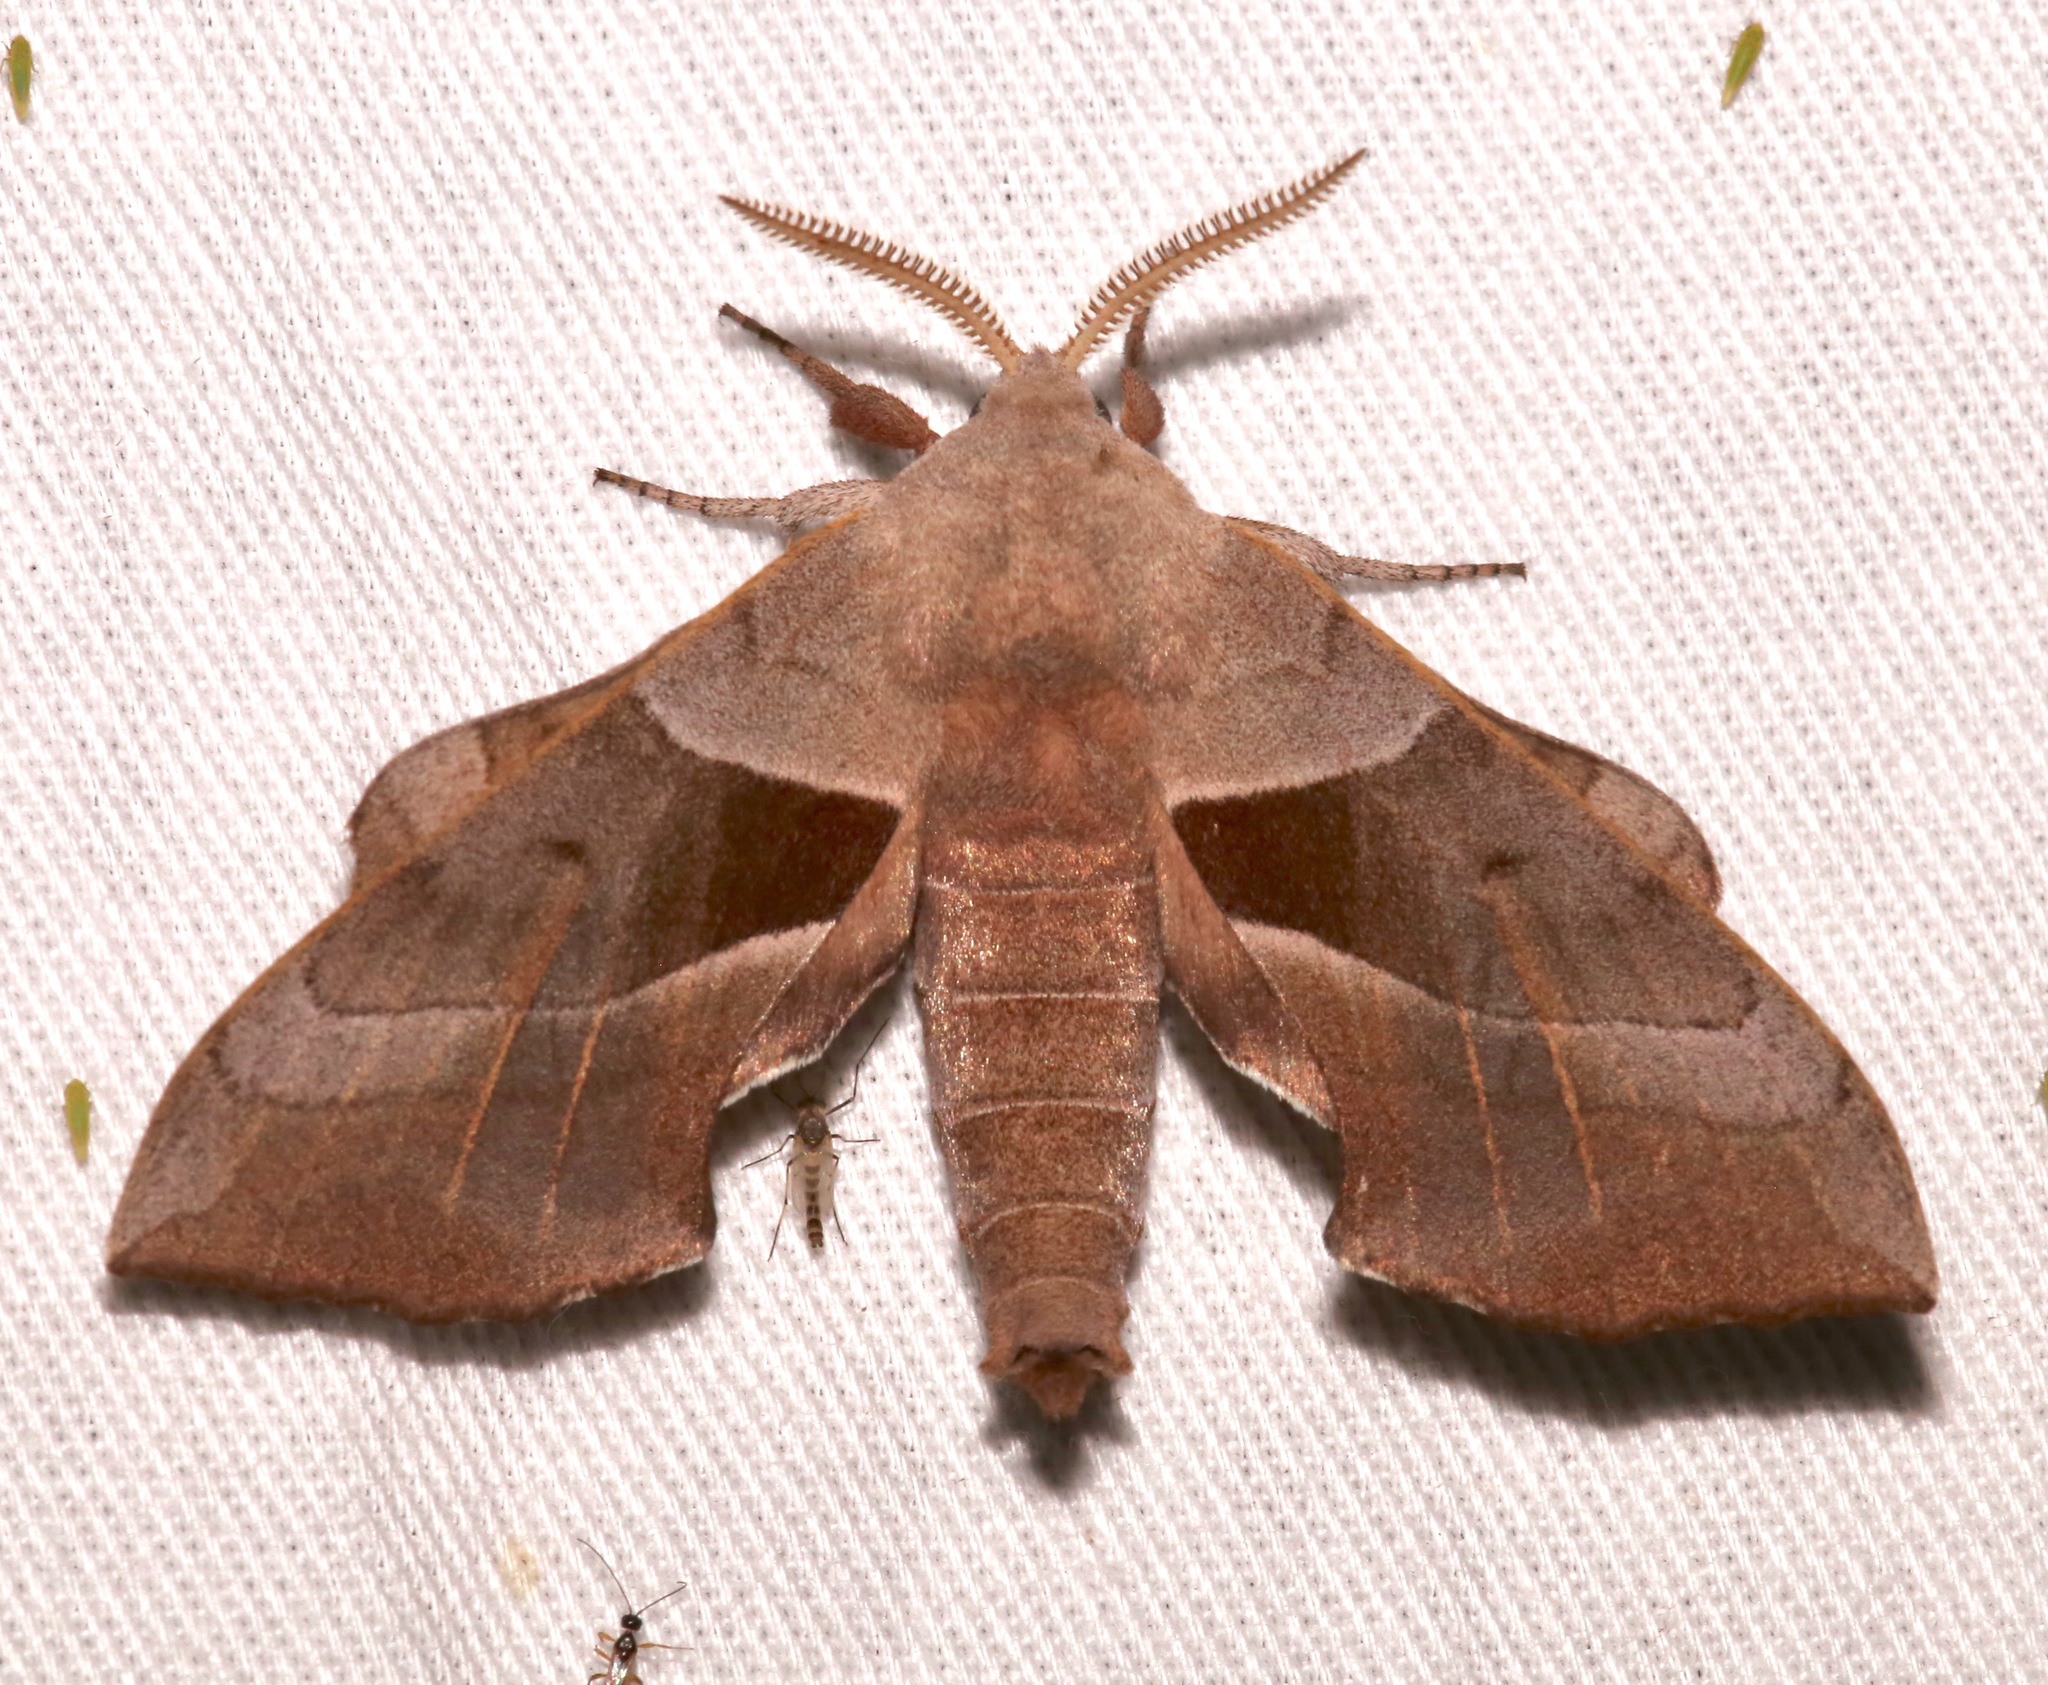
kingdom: Animalia
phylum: Arthropoda
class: Insecta
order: Lepidoptera
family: Sphingidae
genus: Amorpha
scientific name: Amorpha juglandis
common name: Walnut sphinx
